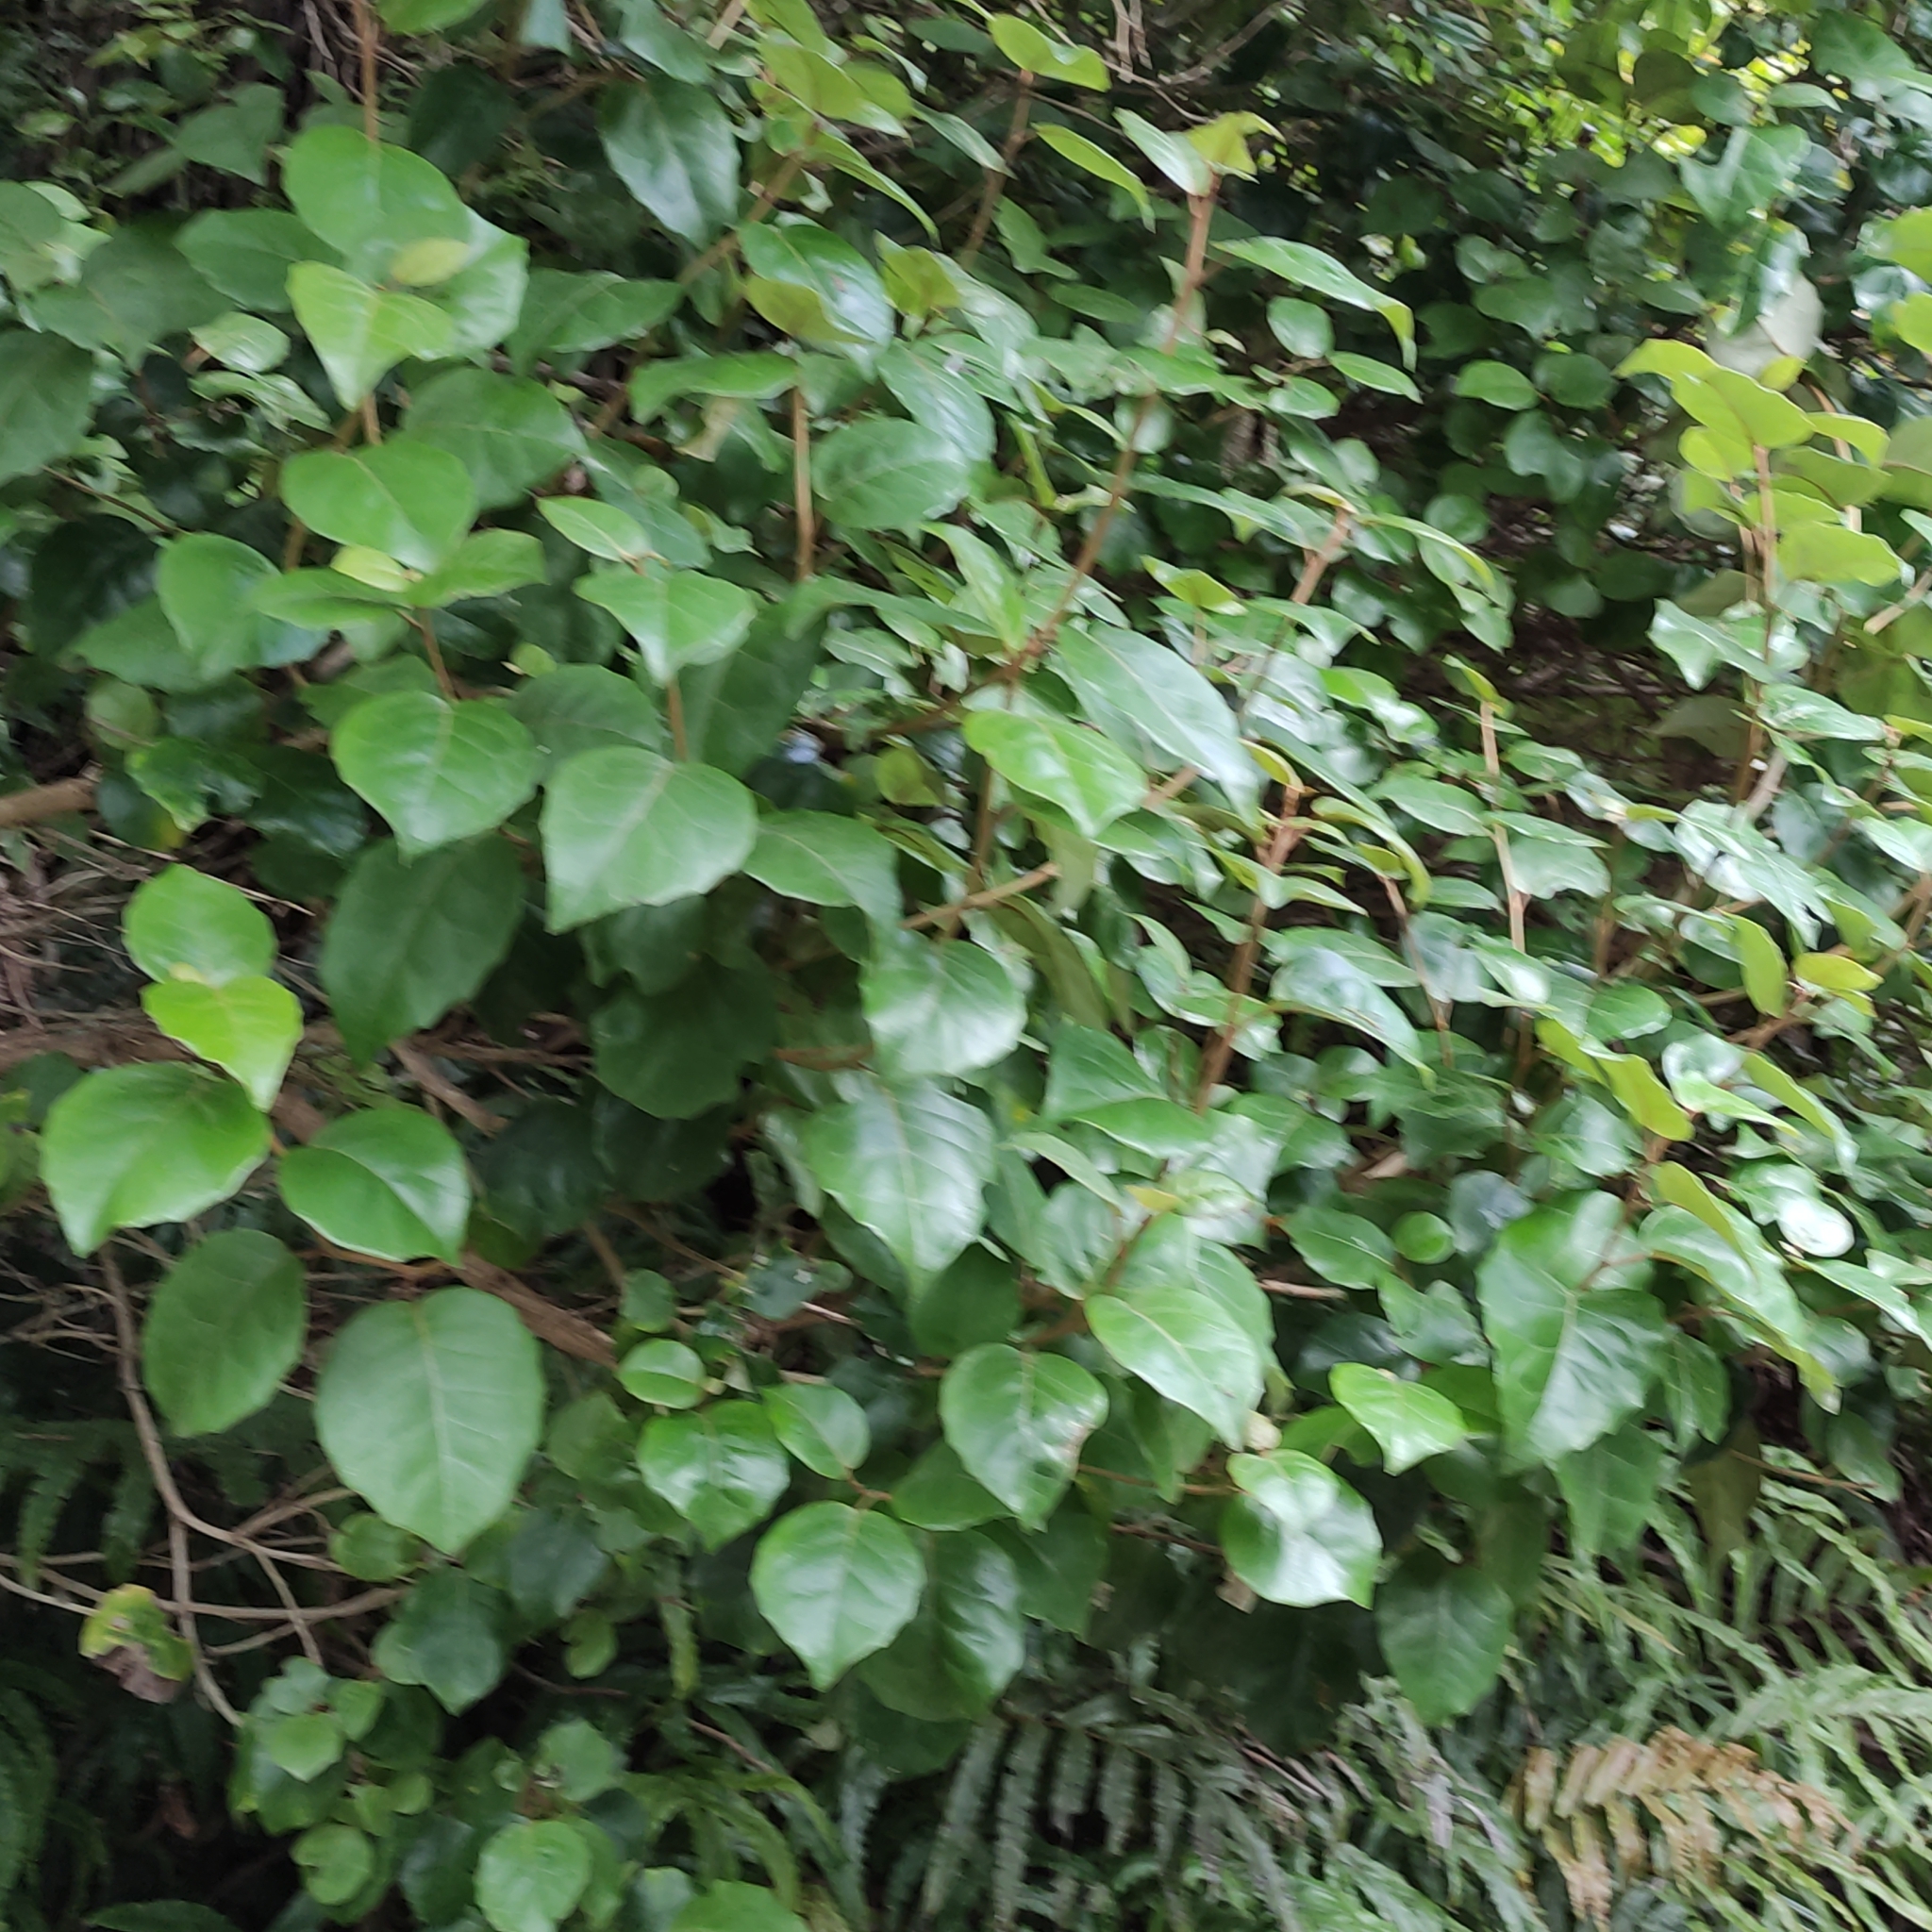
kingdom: Plantae
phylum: Tracheophyta
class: Magnoliopsida
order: Asterales
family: Asteraceae
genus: Olearia
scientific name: Olearia arborescens
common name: Glossy tree daisy
